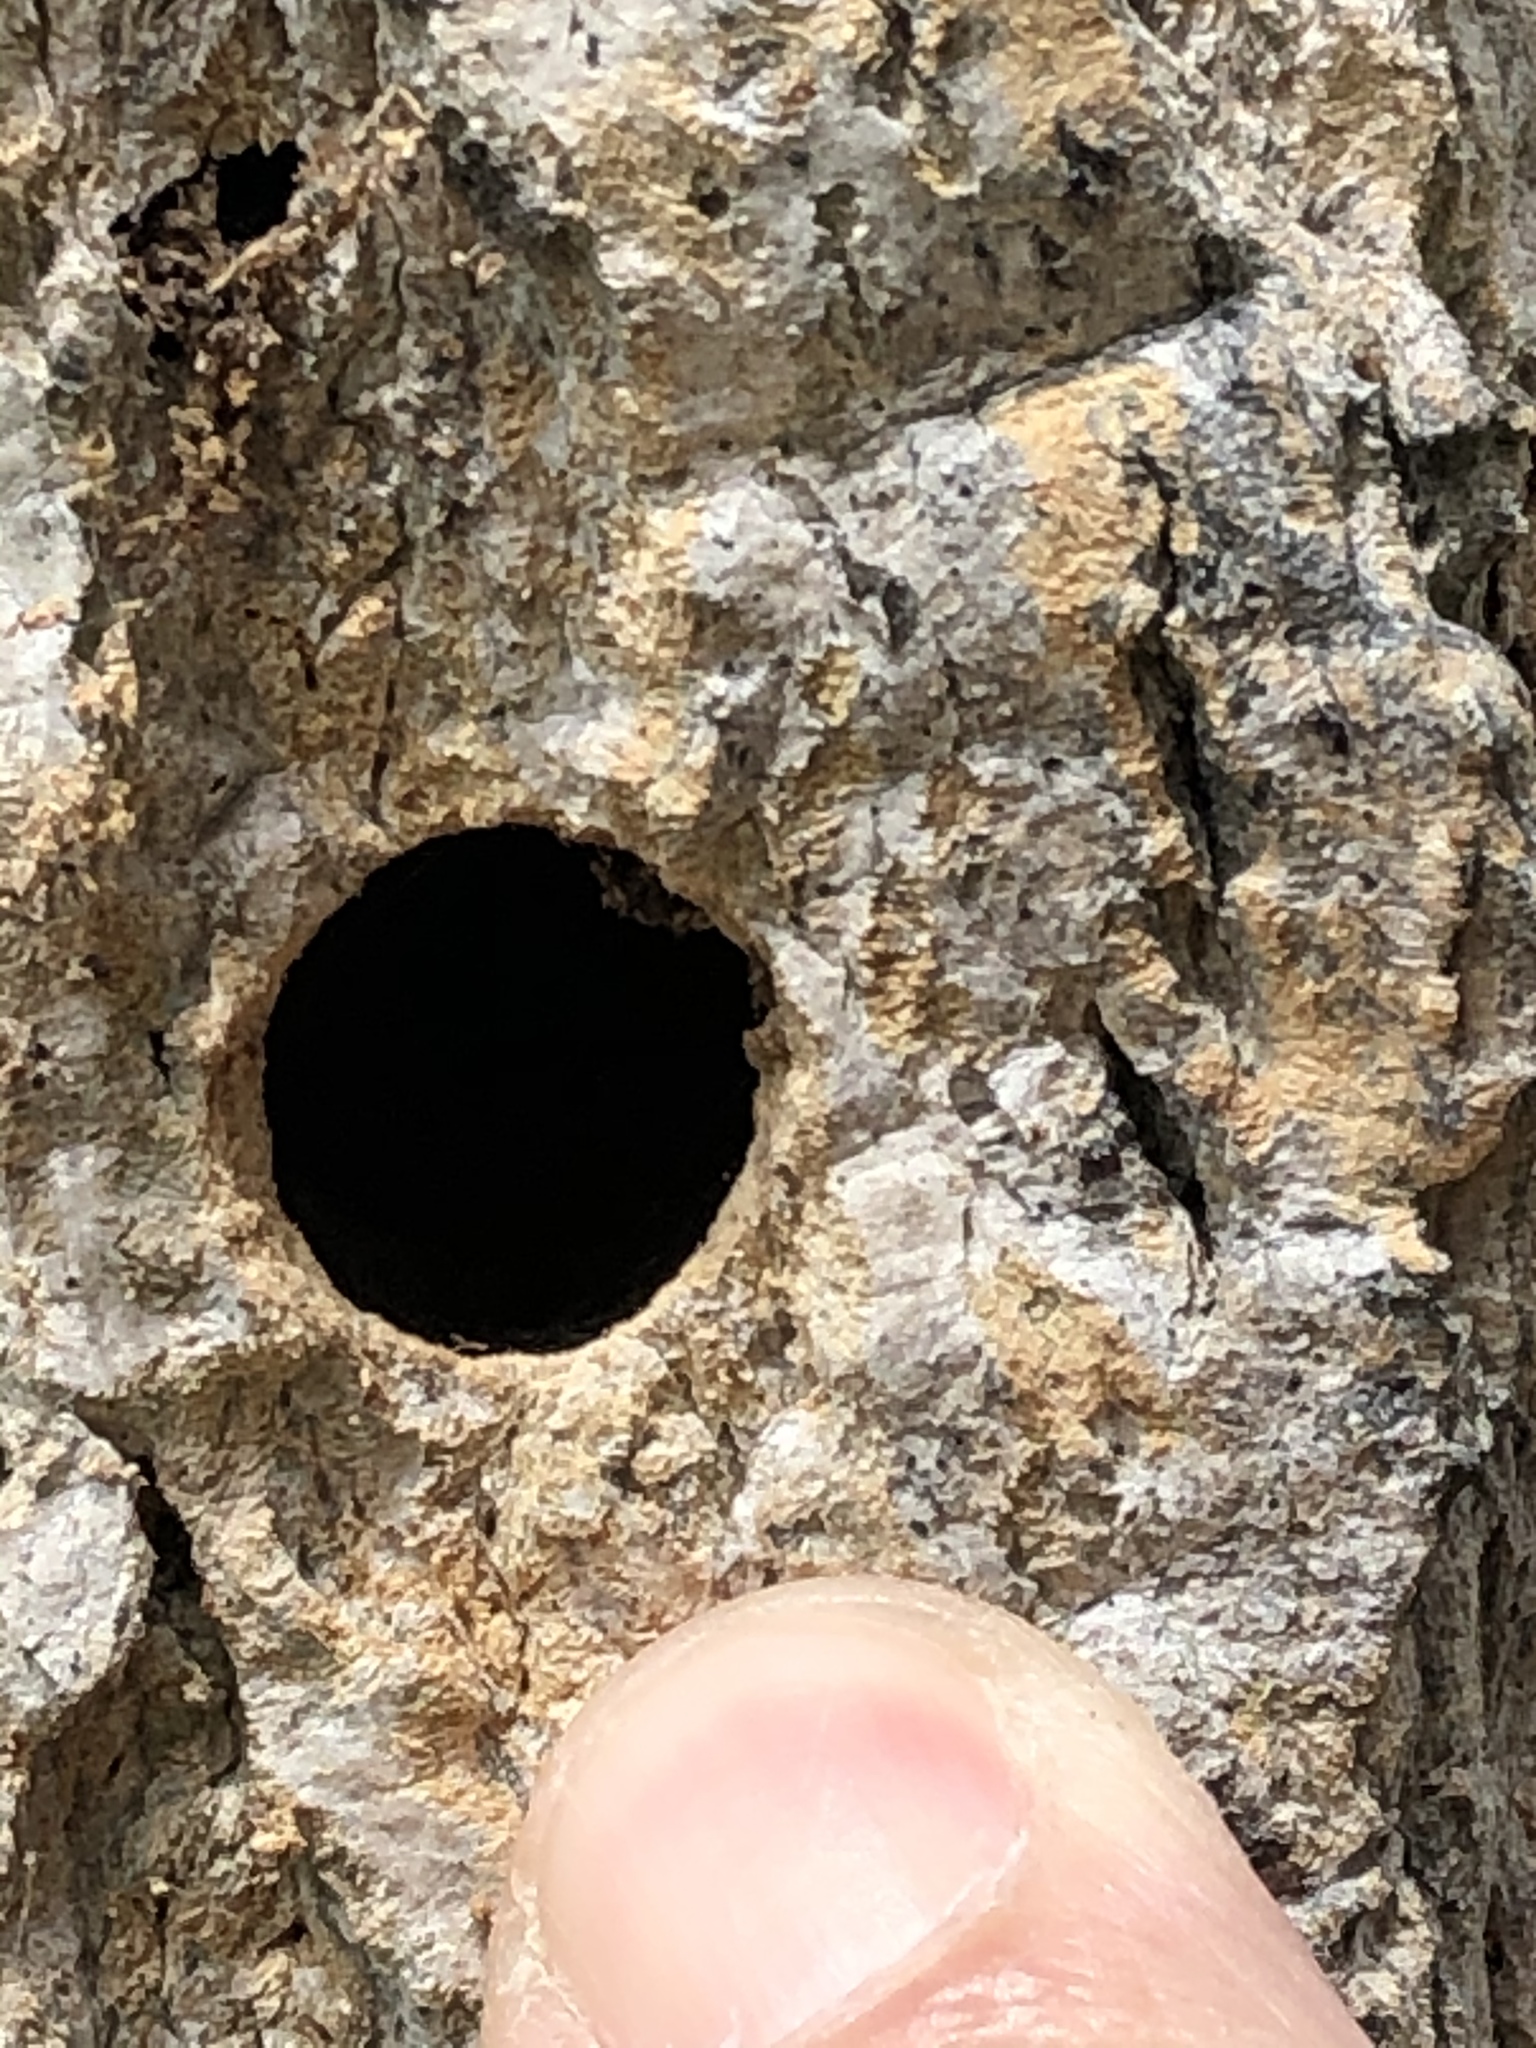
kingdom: Animalia
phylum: Arthropoda
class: Insecta
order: Lepidoptera
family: Nymphalidae
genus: Danaus
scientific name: Danaus plexippus
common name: Monarch
